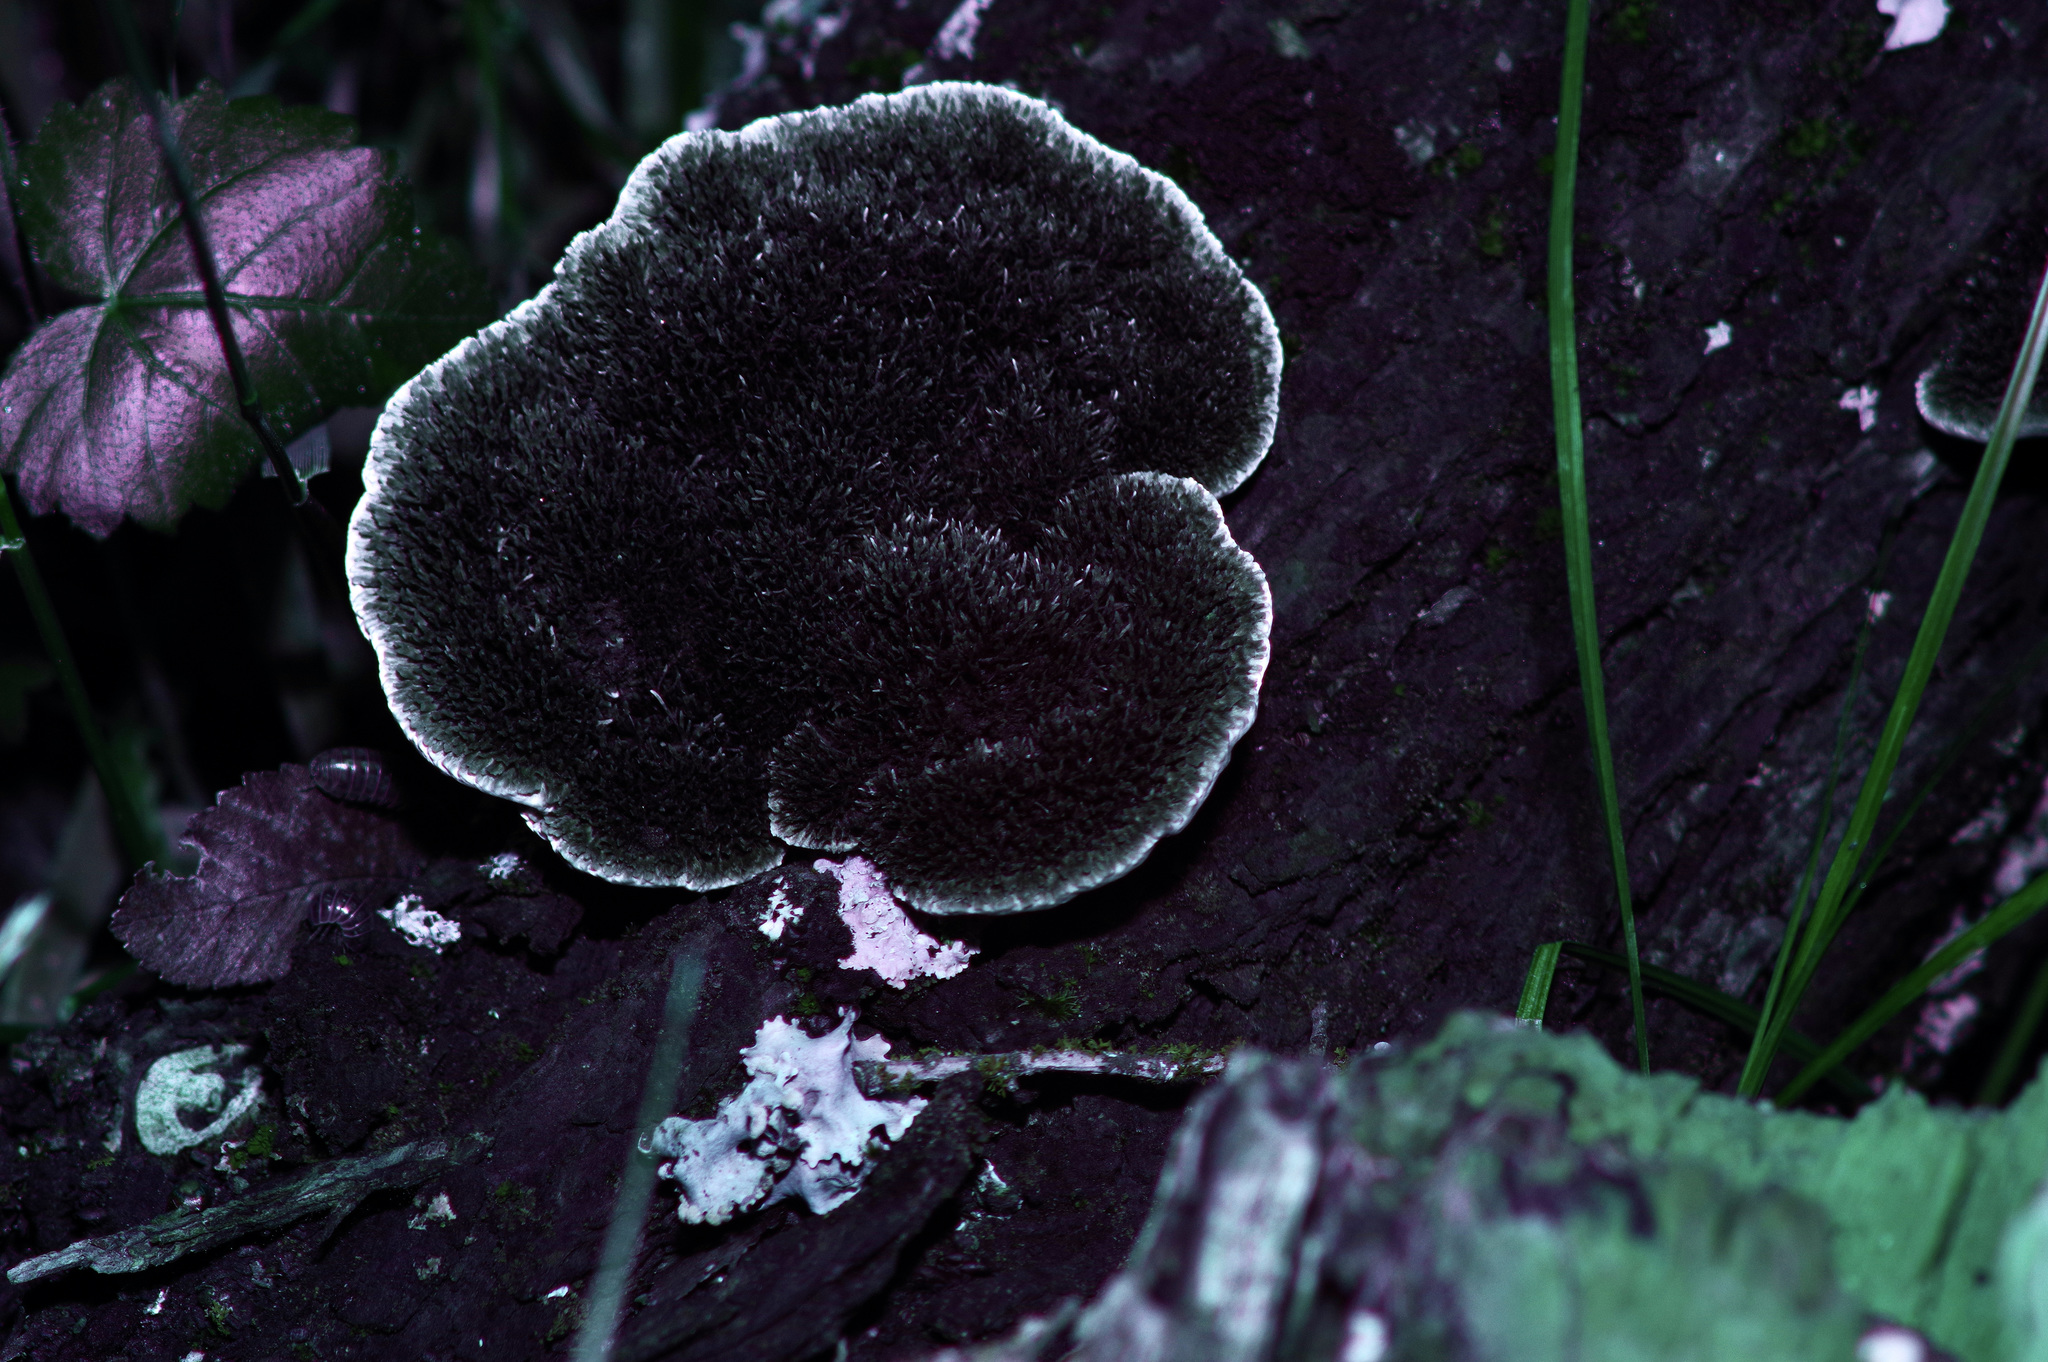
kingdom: Fungi
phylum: Basidiomycota
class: Agaricomycetes
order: Polyporales
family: Cerrenaceae
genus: Cerrena
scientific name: Cerrena hydnoides
